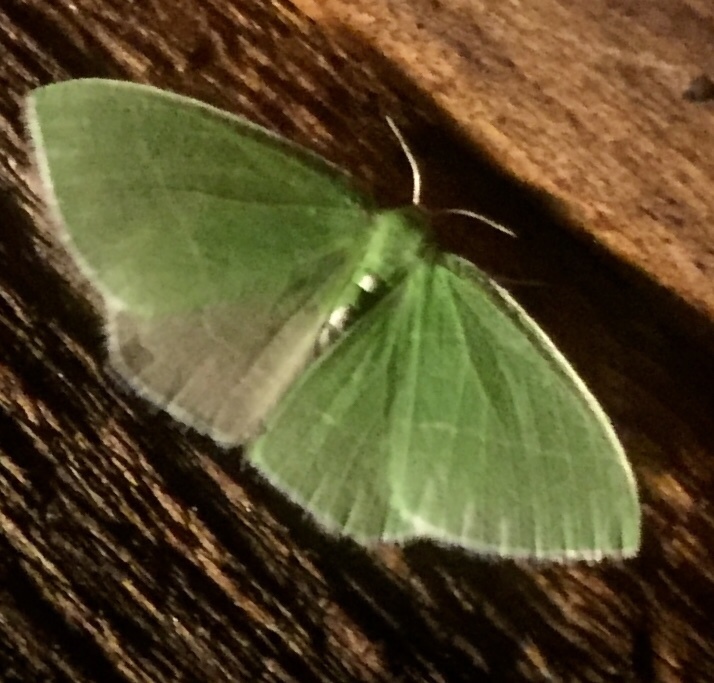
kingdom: Animalia
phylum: Arthropoda
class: Insecta
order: Lepidoptera
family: Geometridae
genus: Nemoria
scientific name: Nemoria mimosaria
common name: White-fringed emerald
